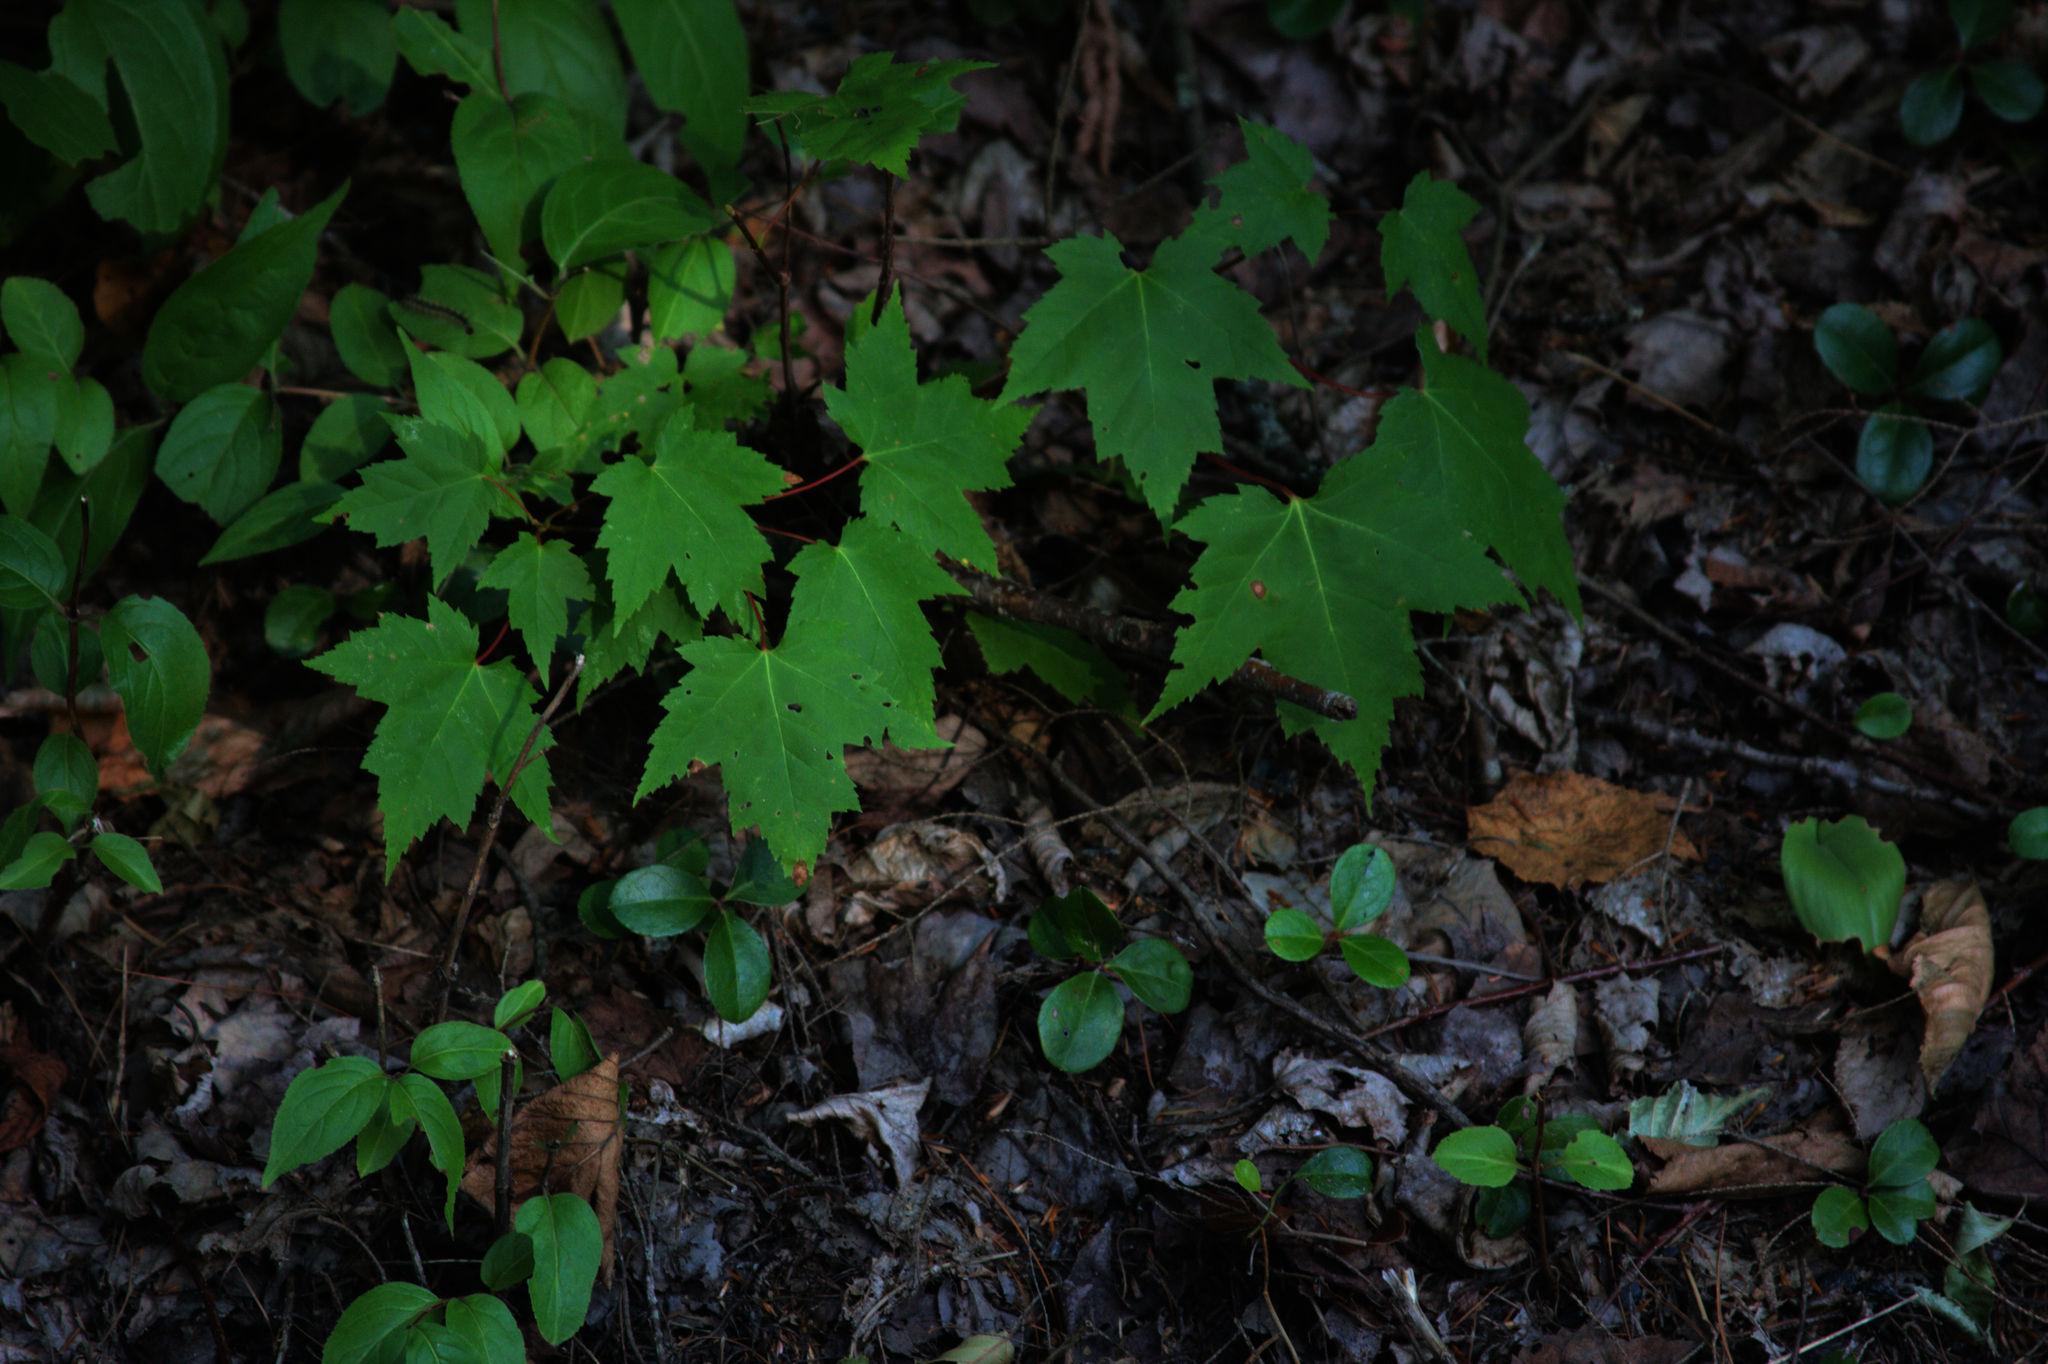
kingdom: Plantae
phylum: Tracheophyta
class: Magnoliopsida
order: Sapindales
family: Sapindaceae
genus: Acer
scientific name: Acer rubrum
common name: Red maple
